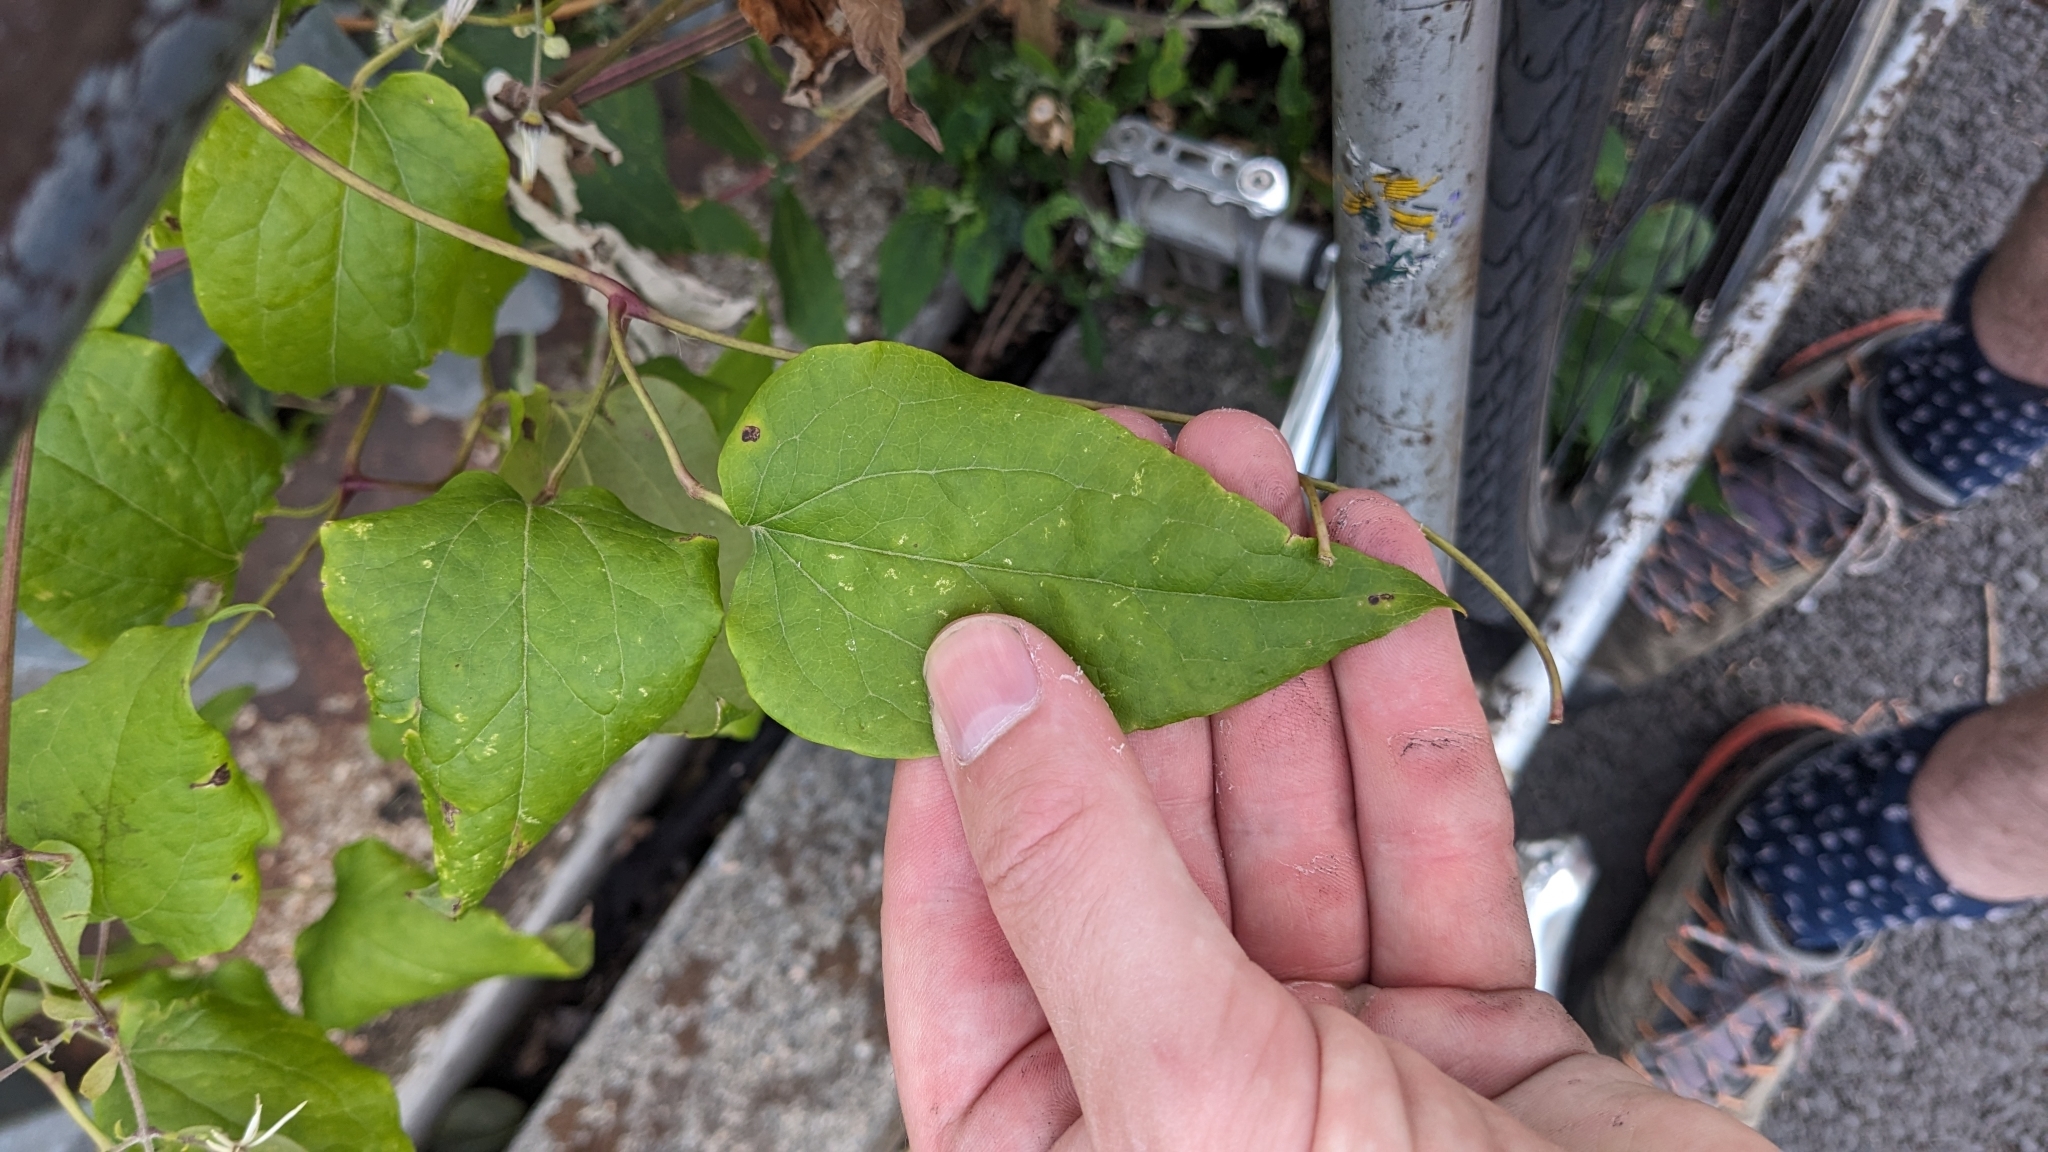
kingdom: Plantae
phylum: Tracheophyta
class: Magnoliopsida
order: Ranunculales
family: Ranunculaceae
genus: Clematis
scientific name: Clematis vitalba
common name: Evergreen clematis
